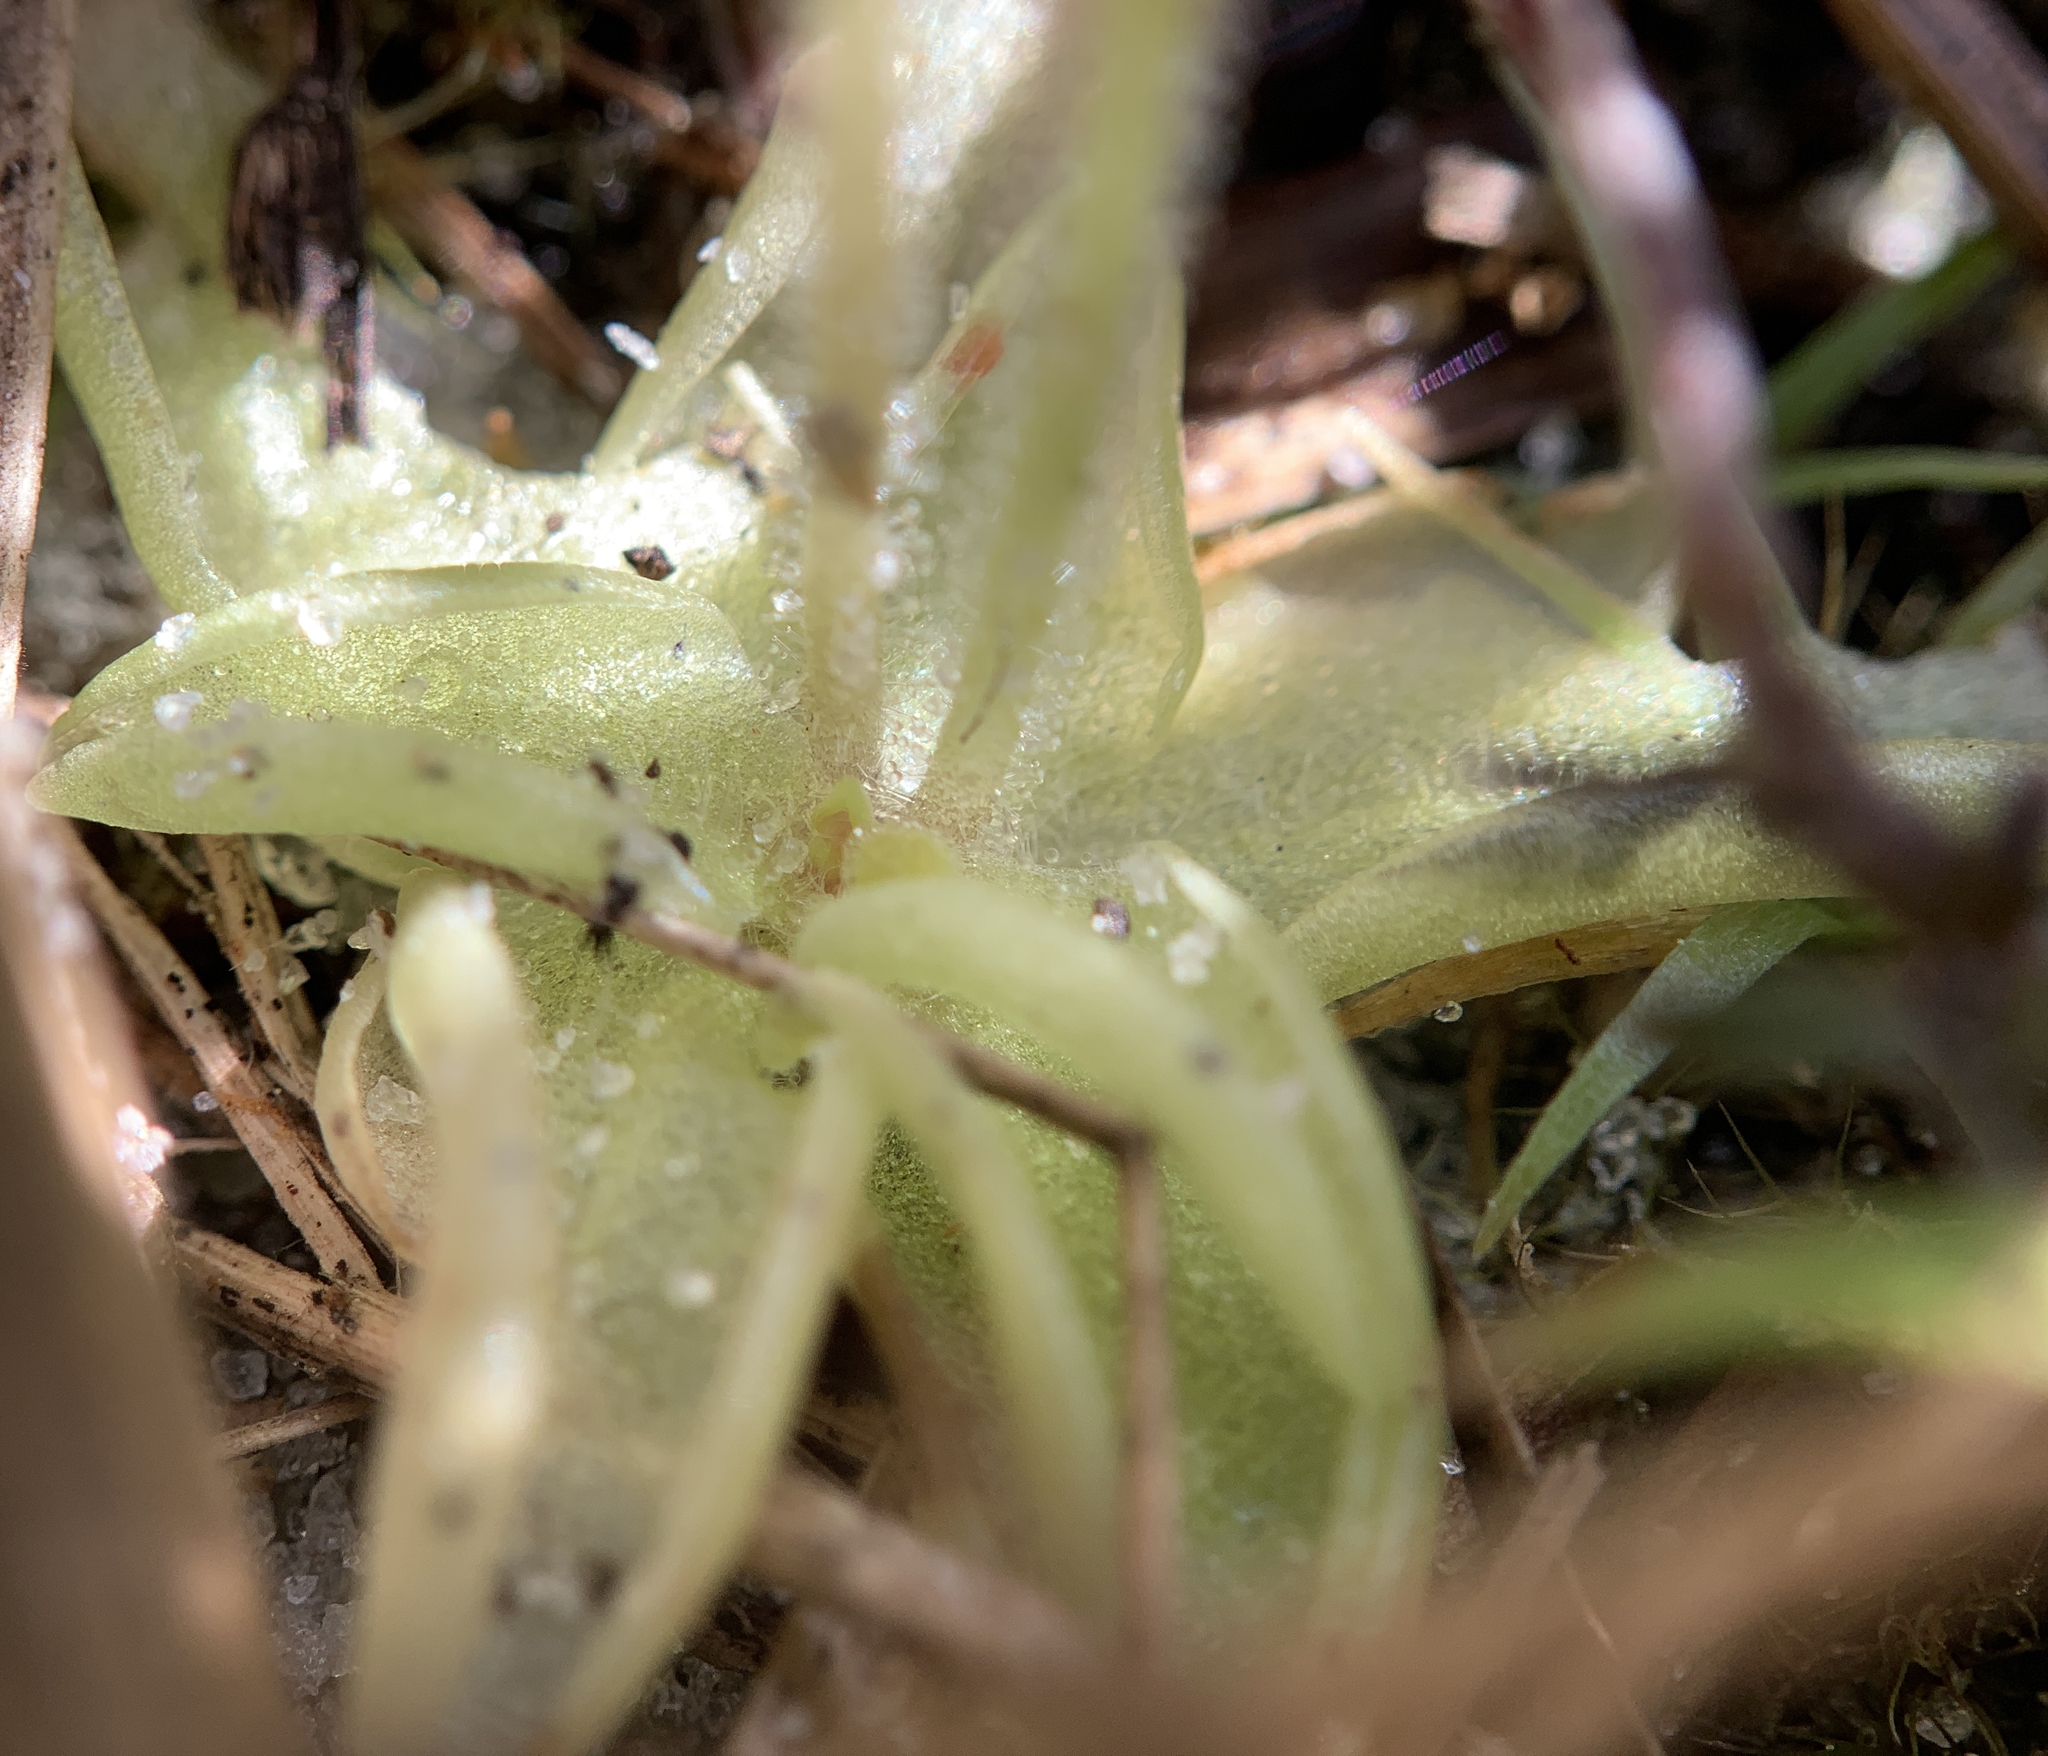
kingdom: Plantae
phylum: Tracheophyta
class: Magnoliopsida
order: Lamiales
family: Lentibulariaceae
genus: Pinguicula
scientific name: Pinguicula pumila
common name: Small butterwort
